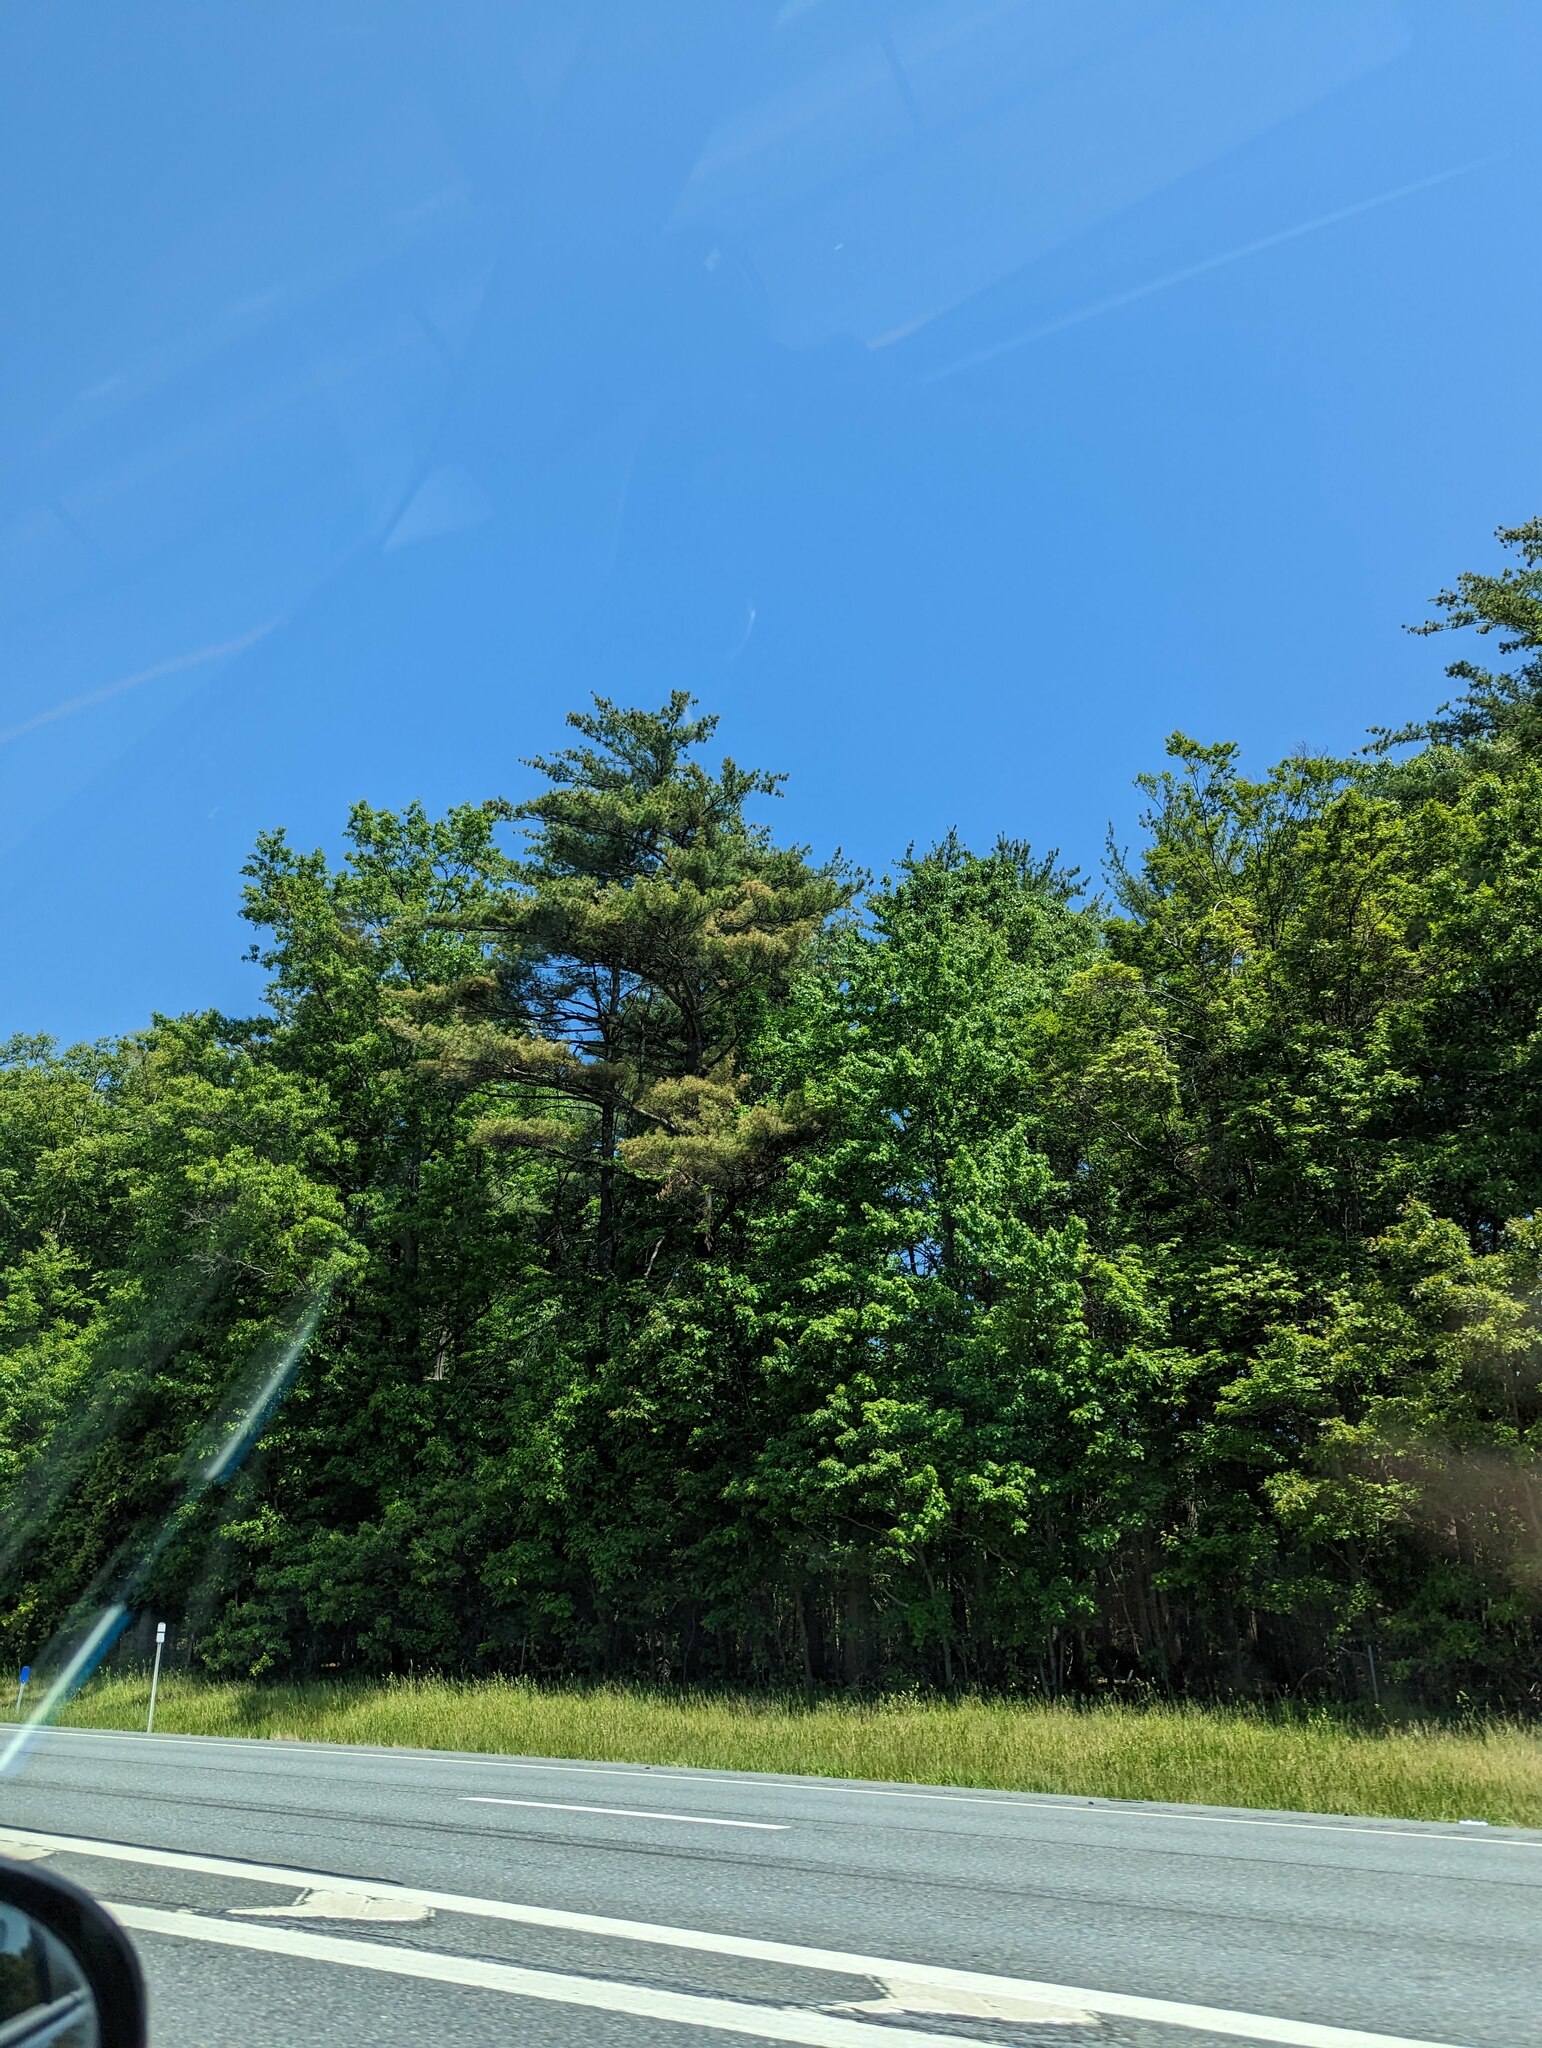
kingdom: Plantae
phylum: Tracheophyta
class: Pinopsida
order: Pinales
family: Pinaceae
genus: Pinus
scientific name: Pinus strobus
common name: Weymouth pine
